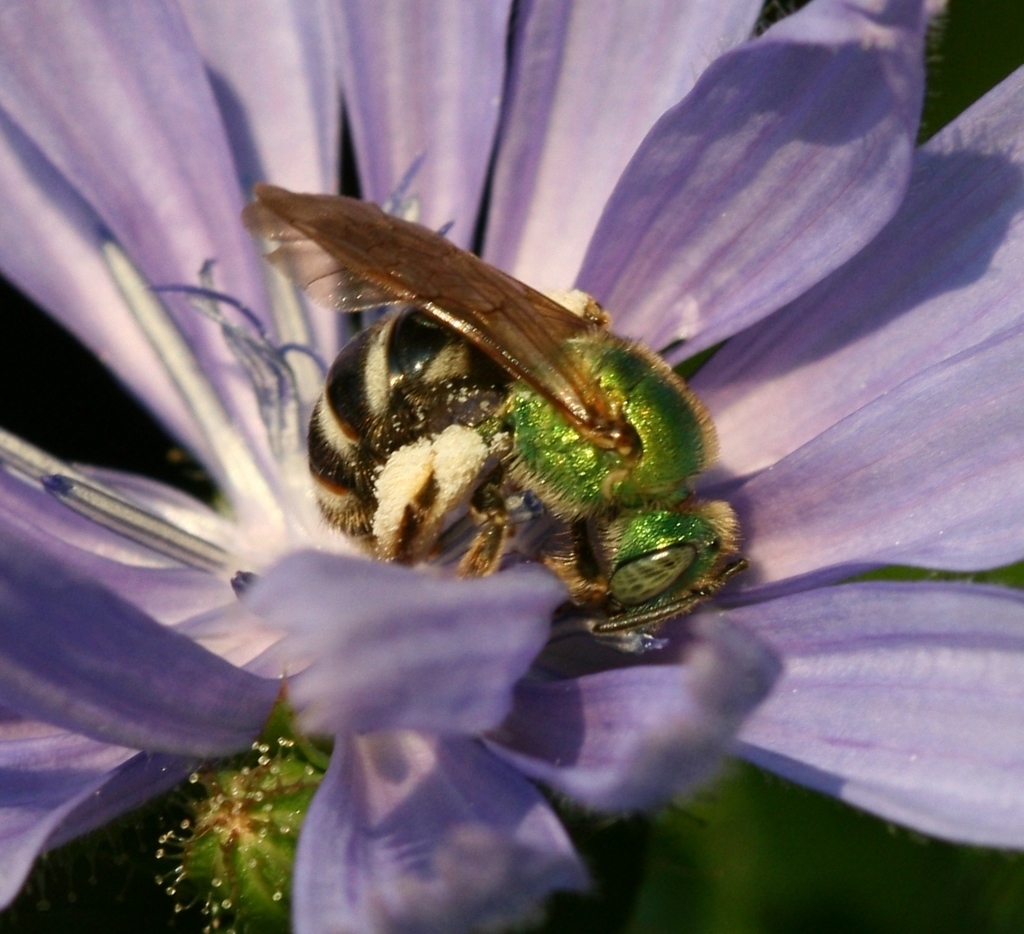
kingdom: Animalia
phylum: Arthropoda
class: Insecta
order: Hymenoptera
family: Halictidae
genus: Agapostemon
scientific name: Agapostemon virescens
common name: Bicolored striped sweat bee
